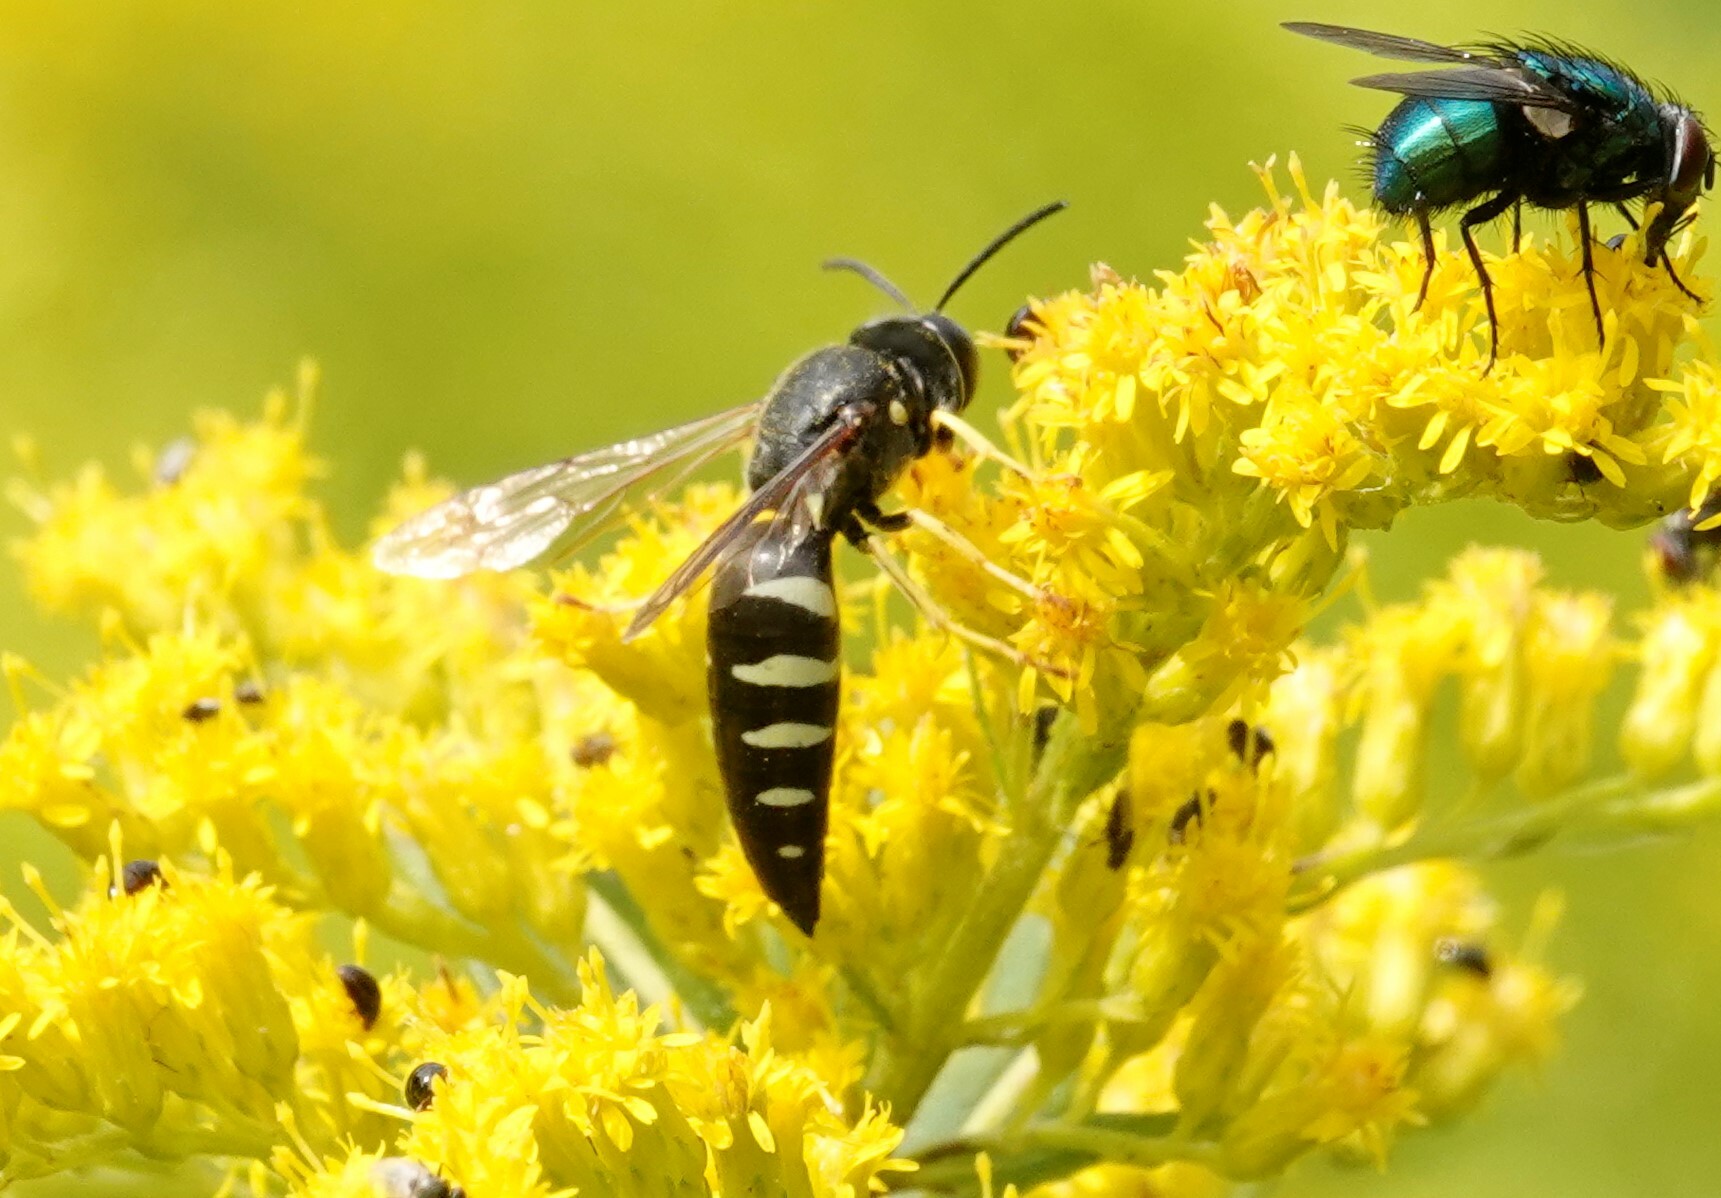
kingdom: Animalia
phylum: Arthropoda
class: Insecta
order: Hymenoptera
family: Crabronidae
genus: Bicyrtes
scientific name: Bicyrtes quadrifasciatus
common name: Four-banded stink bug hunter wasp
